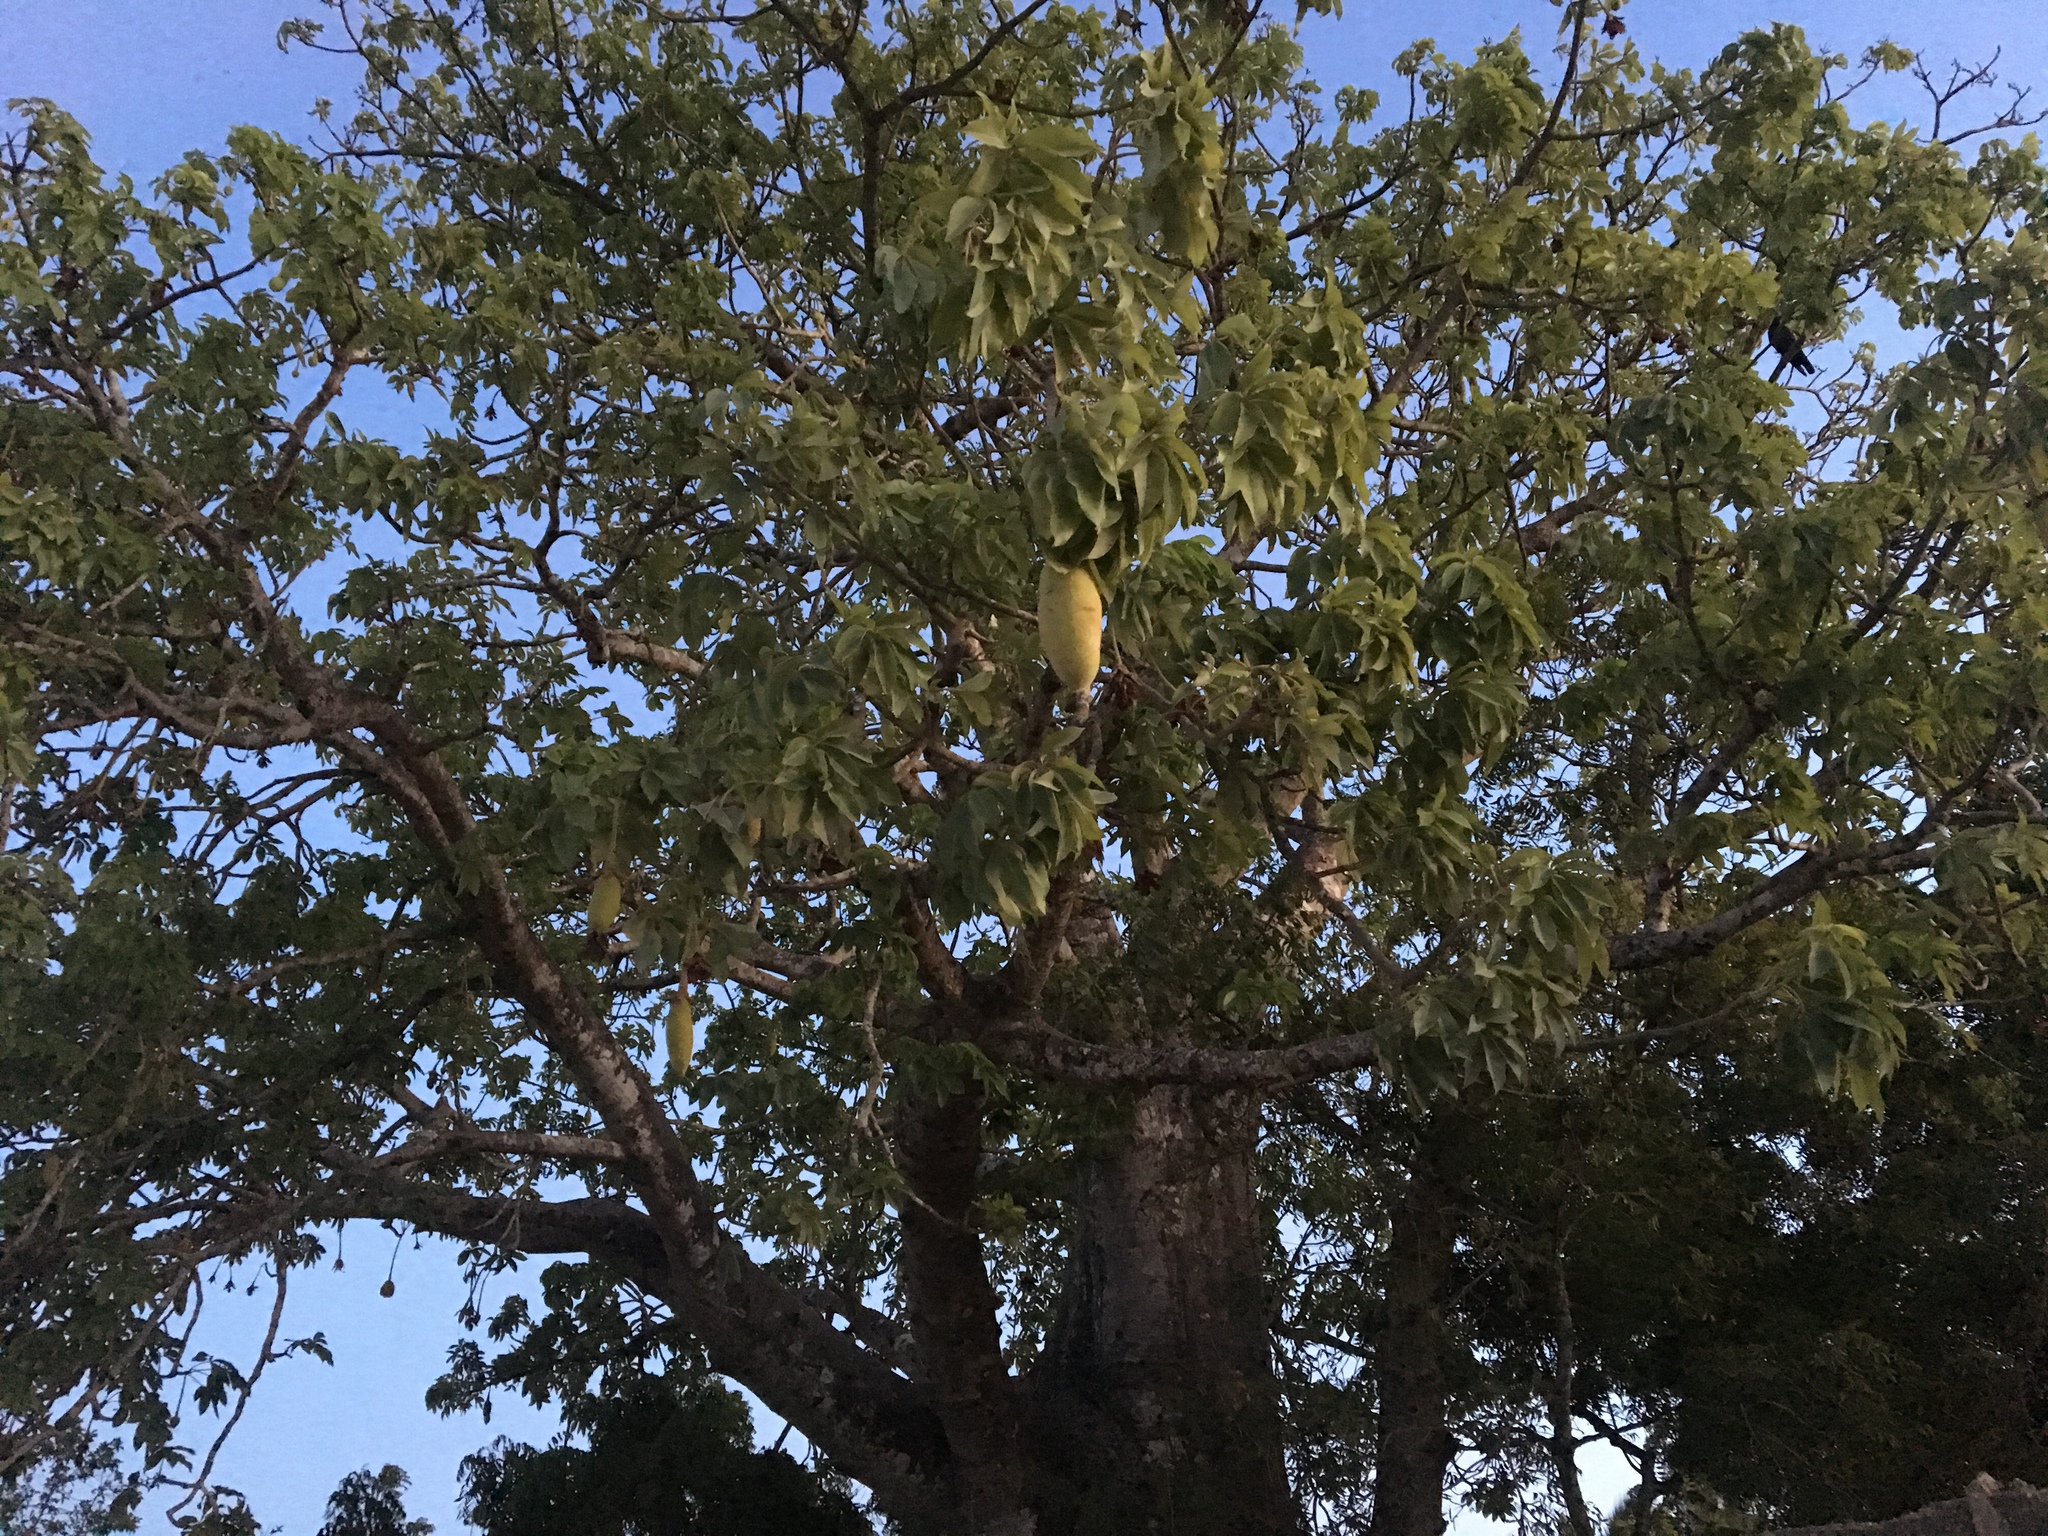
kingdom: Plantae
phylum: Tracheophyta
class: Magnoliopsida
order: Malvales
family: Malvaceae
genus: Adansonia
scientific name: Adansonia digitata
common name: Dead-rat-tree
